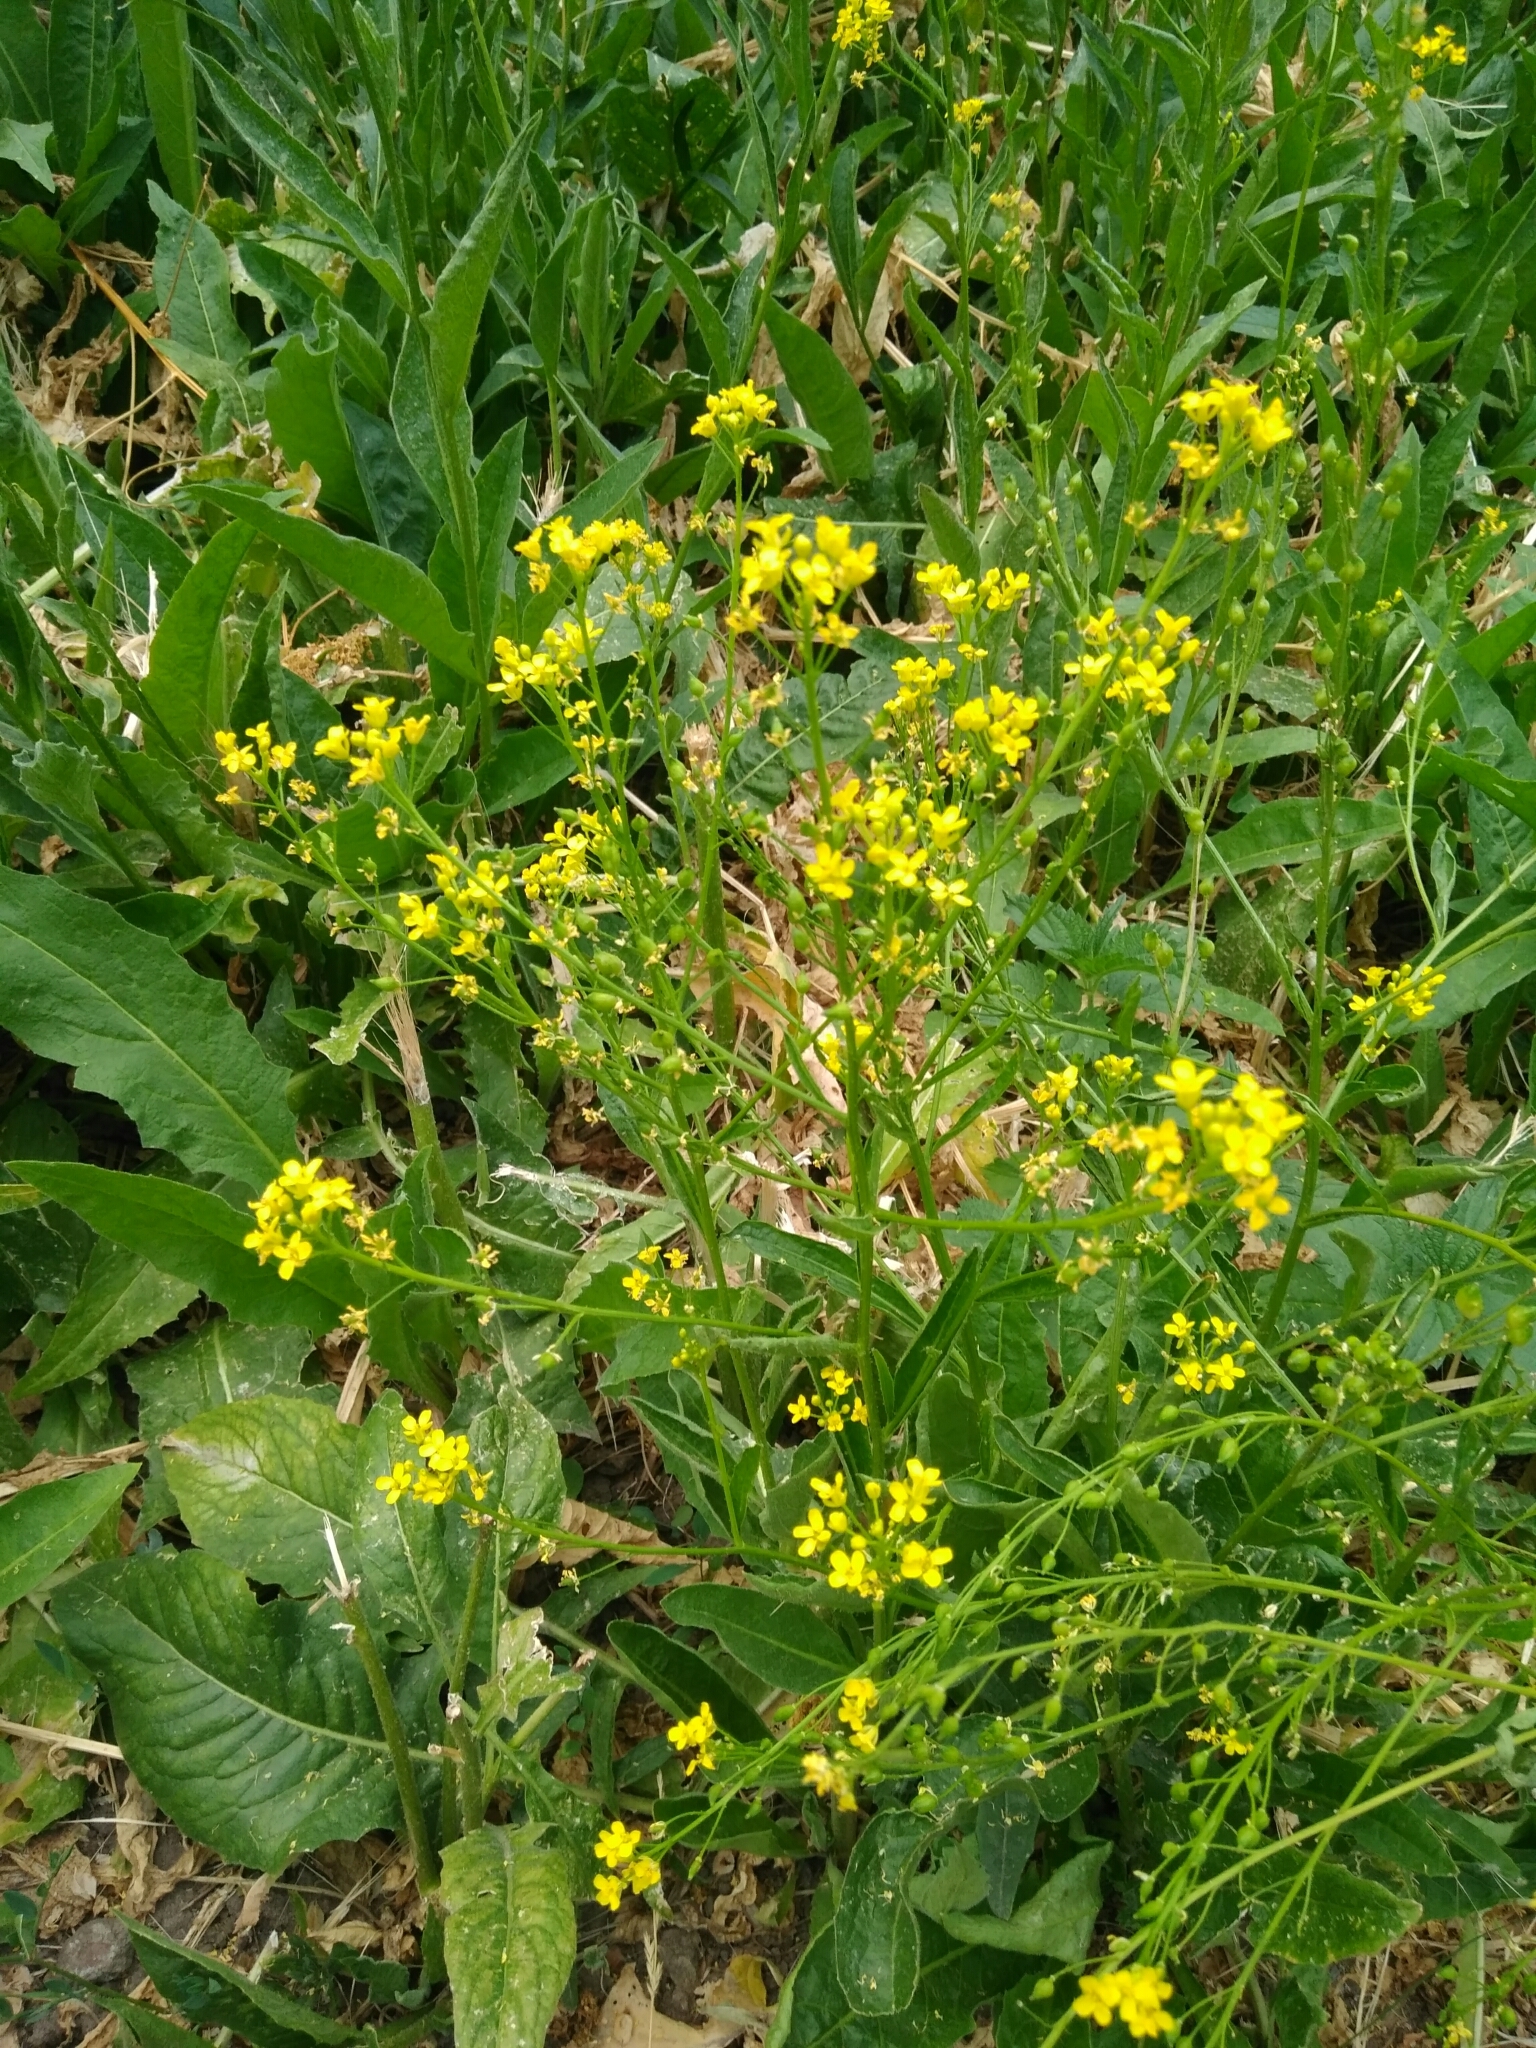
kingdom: Plantae
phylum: Tracheophyta
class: Magnoliopsida
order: Brassicales
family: Brassicaceae
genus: Bunias
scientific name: Bunias orientalis
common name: Warty-cabbage
